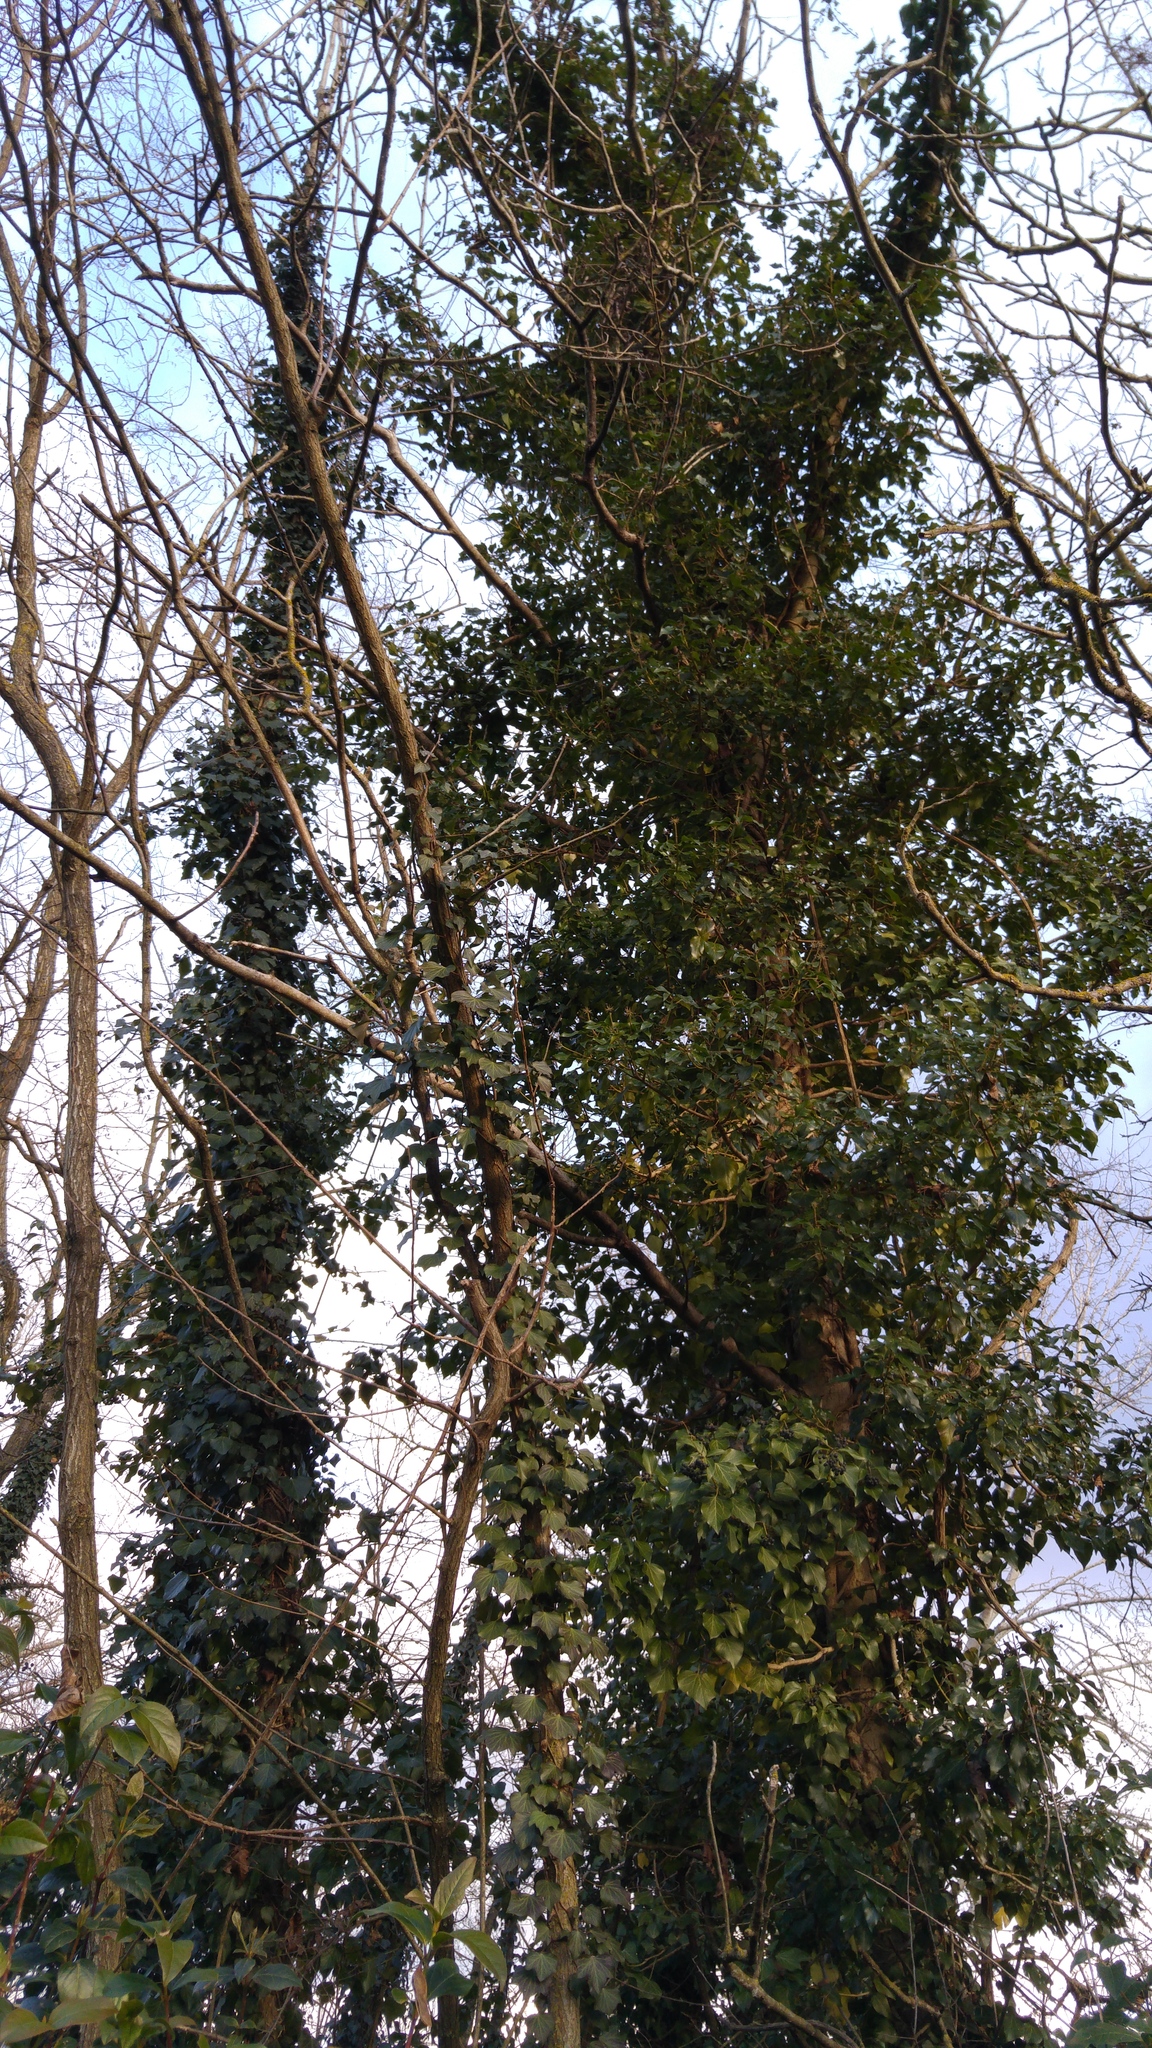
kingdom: Plantae
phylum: Tracheophyta
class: Magnoliopsida
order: Apiales
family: Araliaceae
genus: Hedera
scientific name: Hedera helix
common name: Ivy
